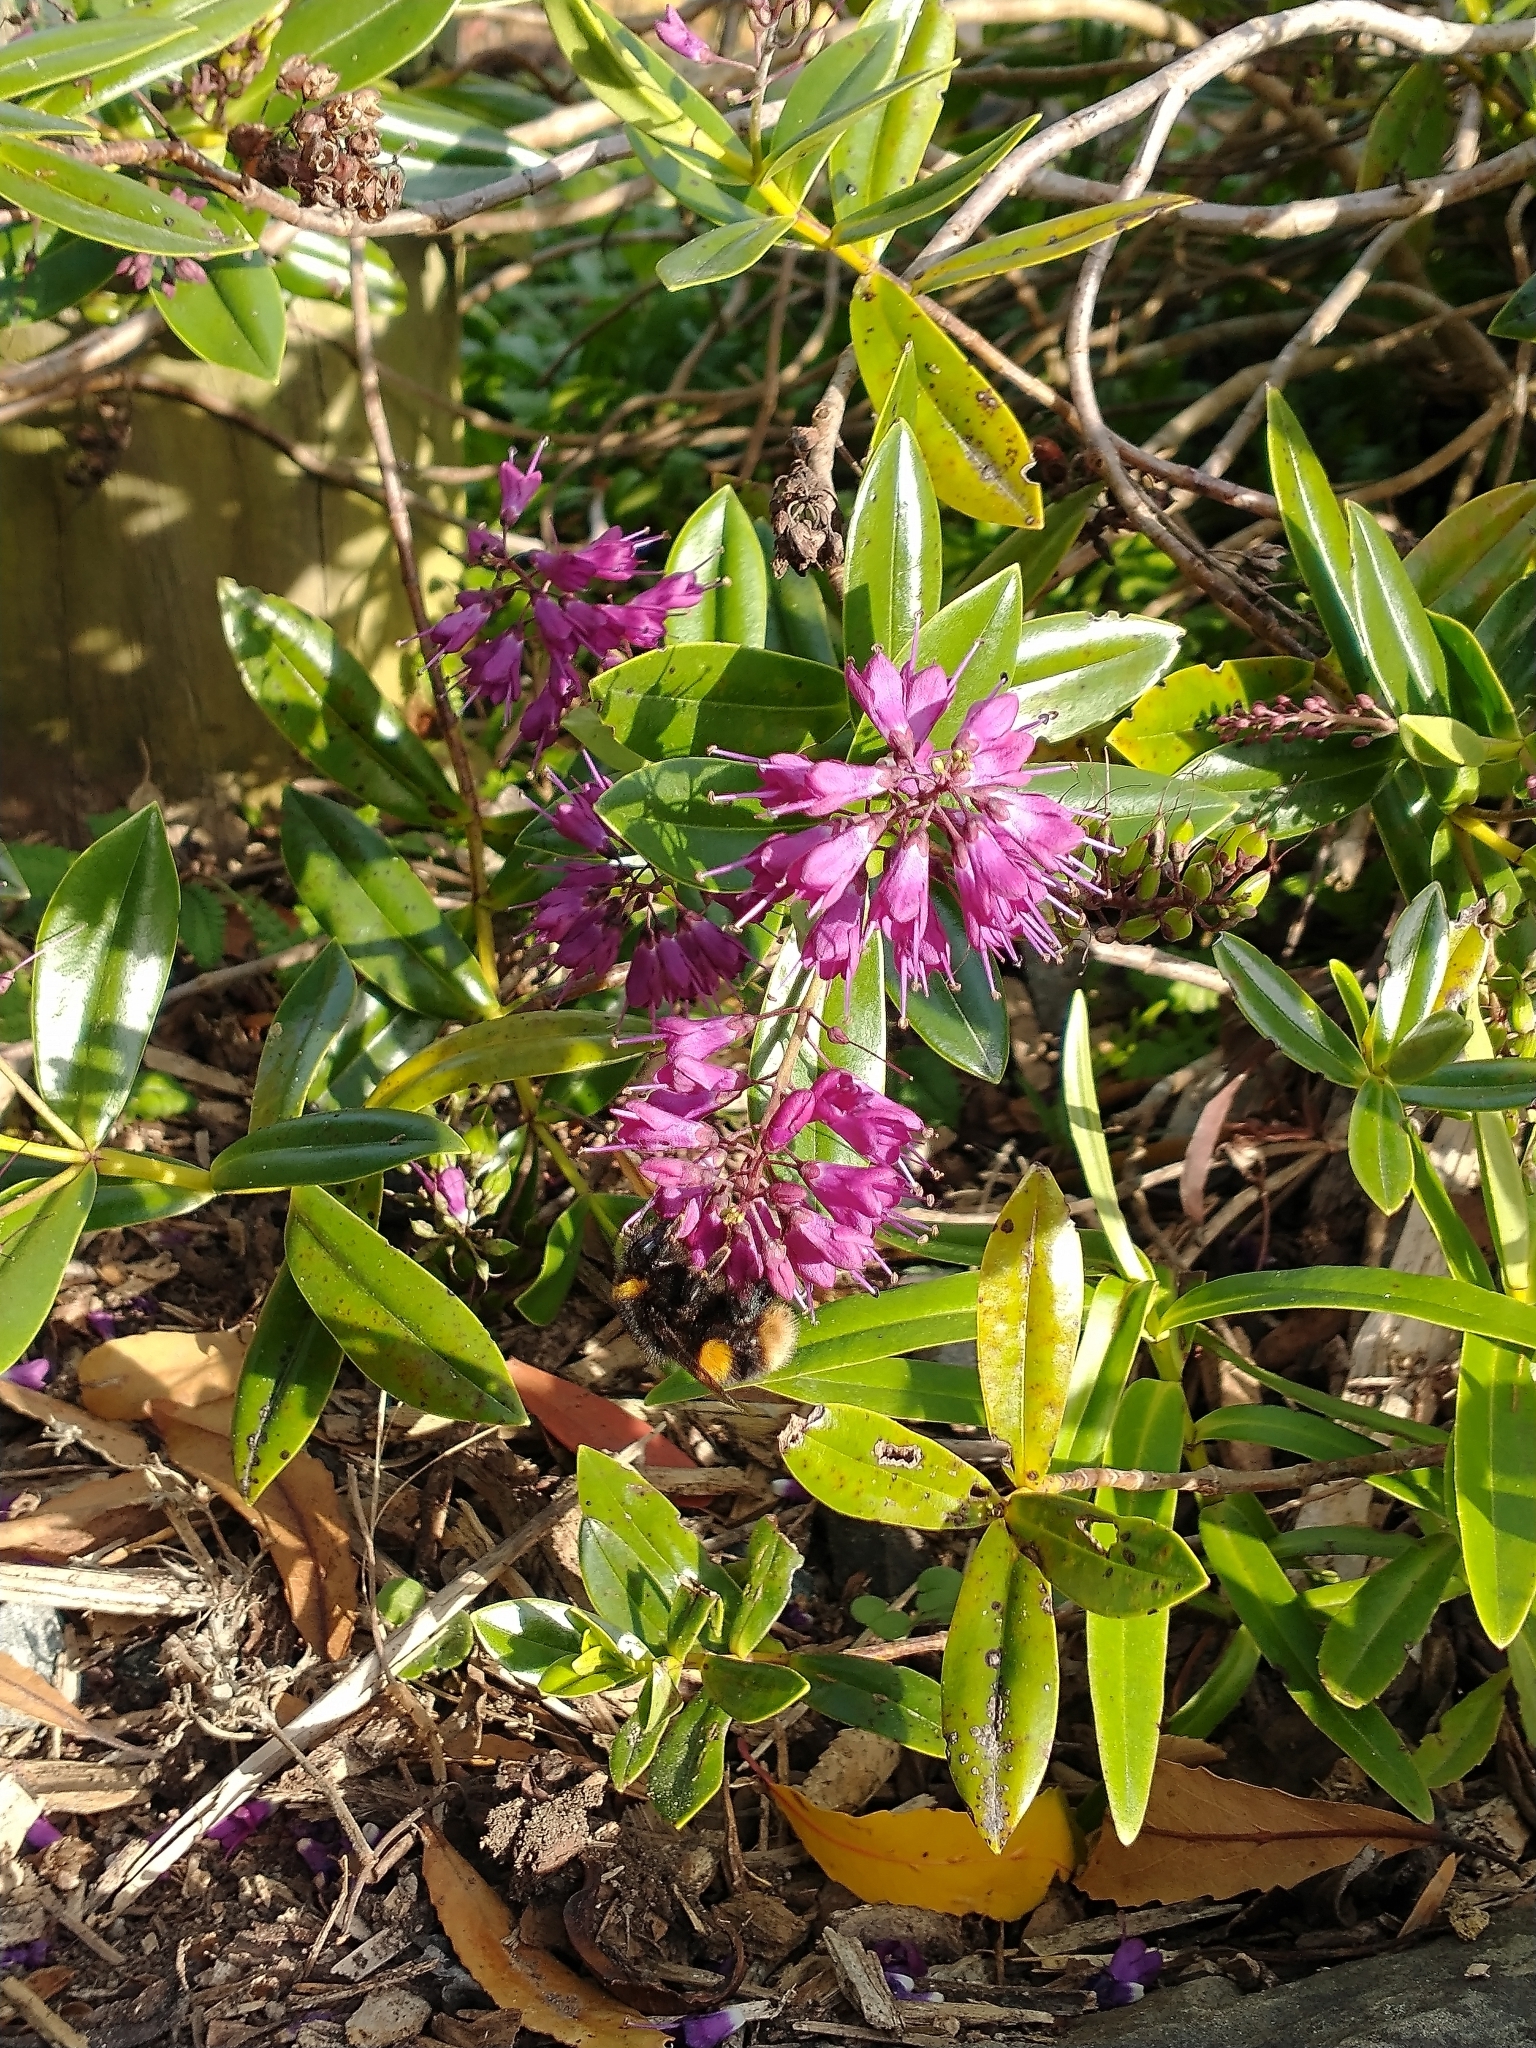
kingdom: Animalia
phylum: Arthropoda
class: Insecta
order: Hymenoptera
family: Apidae
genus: Bombus
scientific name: Bombus terrestris
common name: Buff-tailed bumblebee
